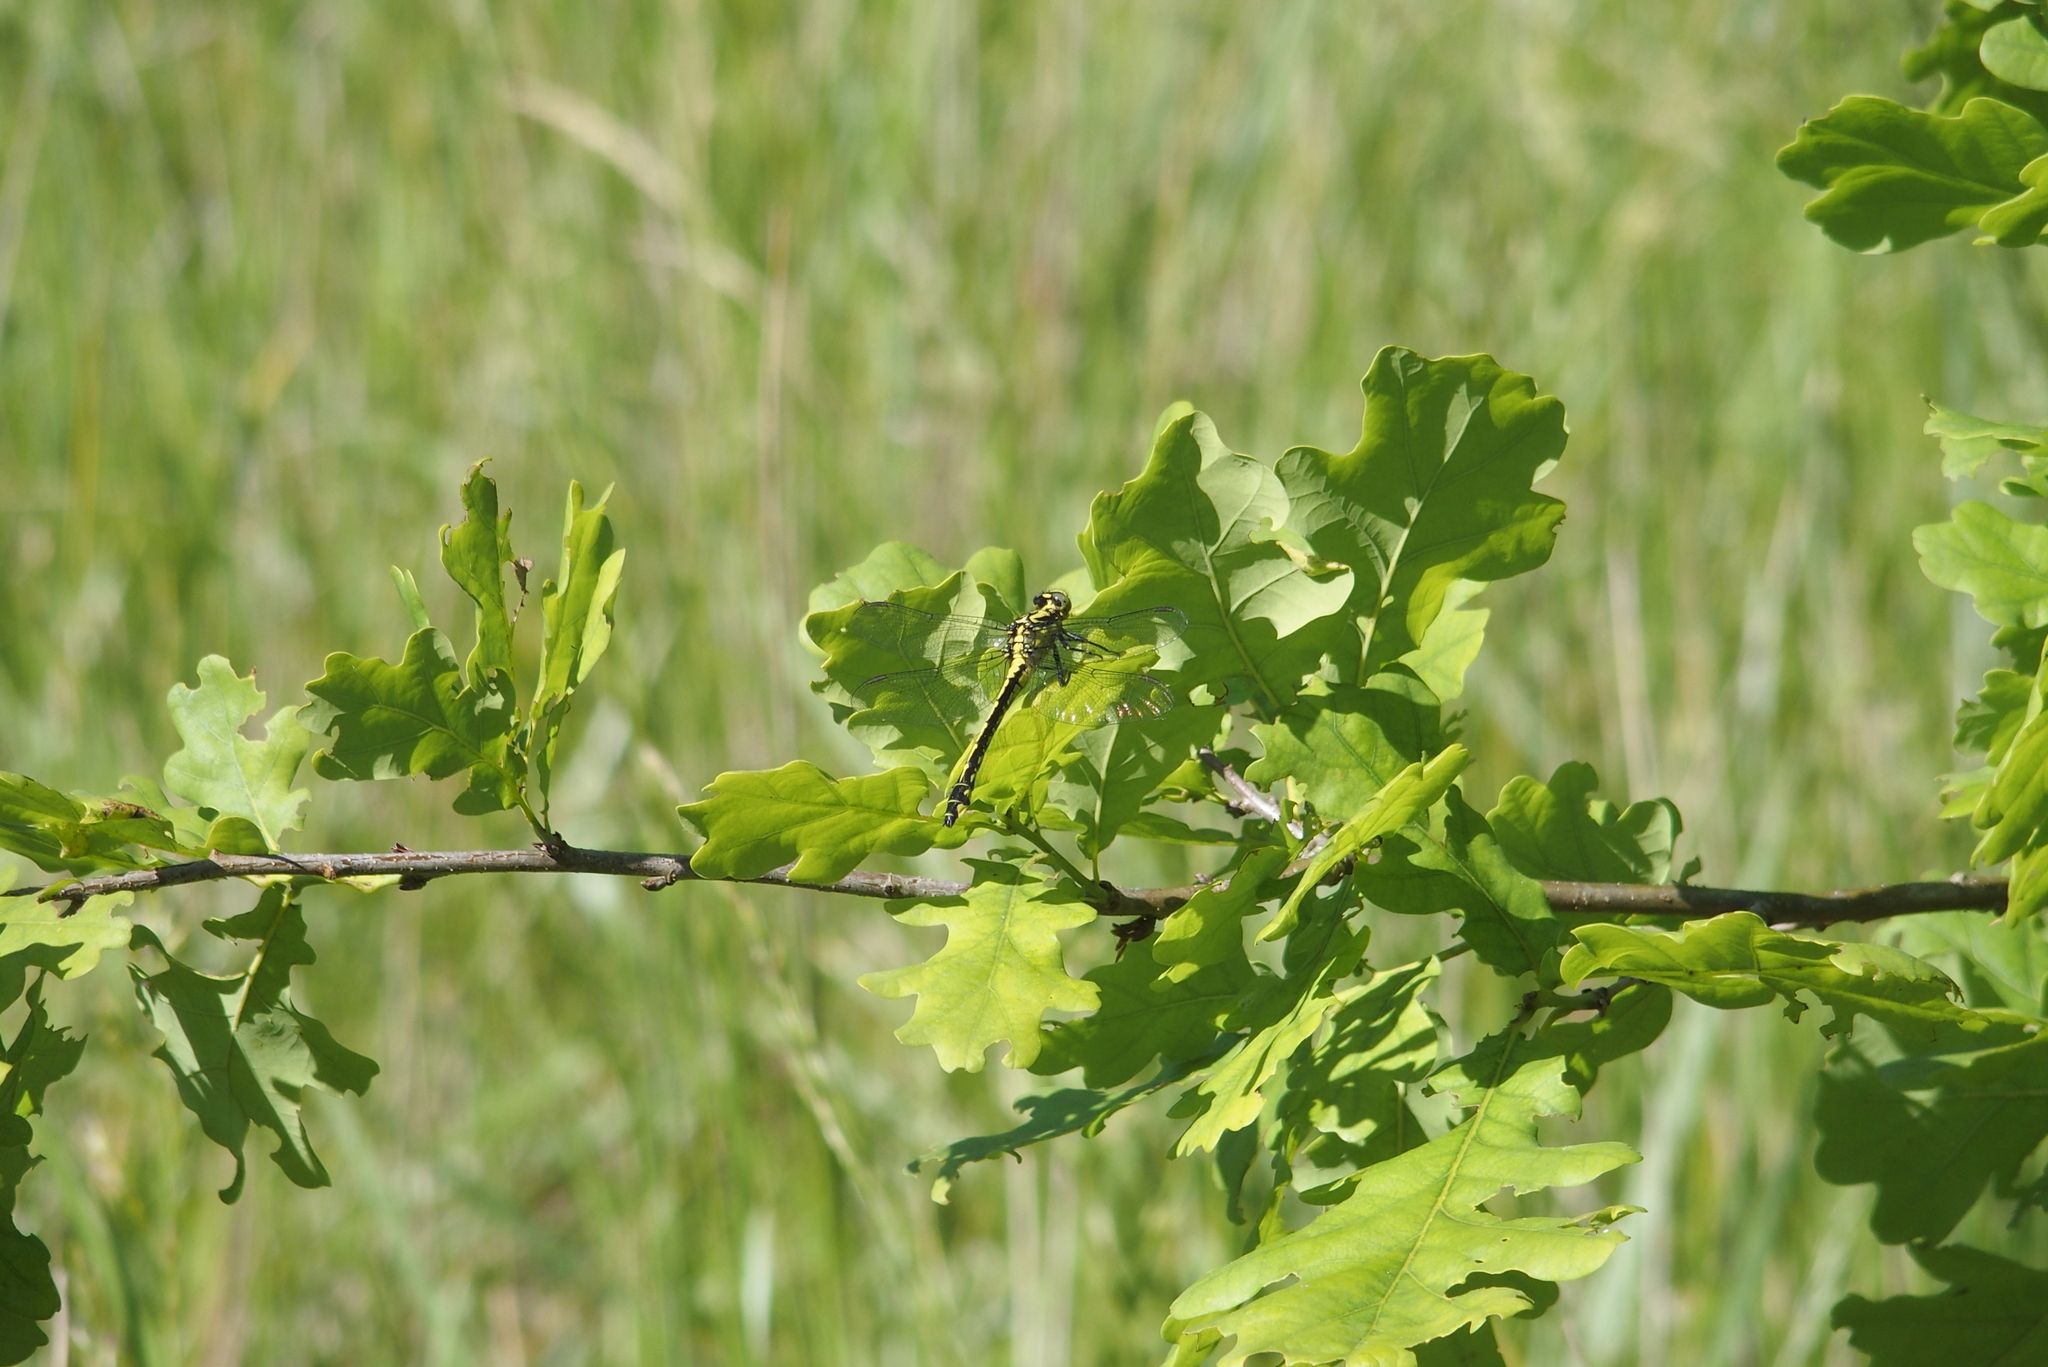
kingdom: Animalia
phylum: Arthropoda
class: Insecta
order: Odonata
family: Gomphidae
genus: Gomphus
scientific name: Gomphus vulgatissimus
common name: Club-tailed dragonfly
